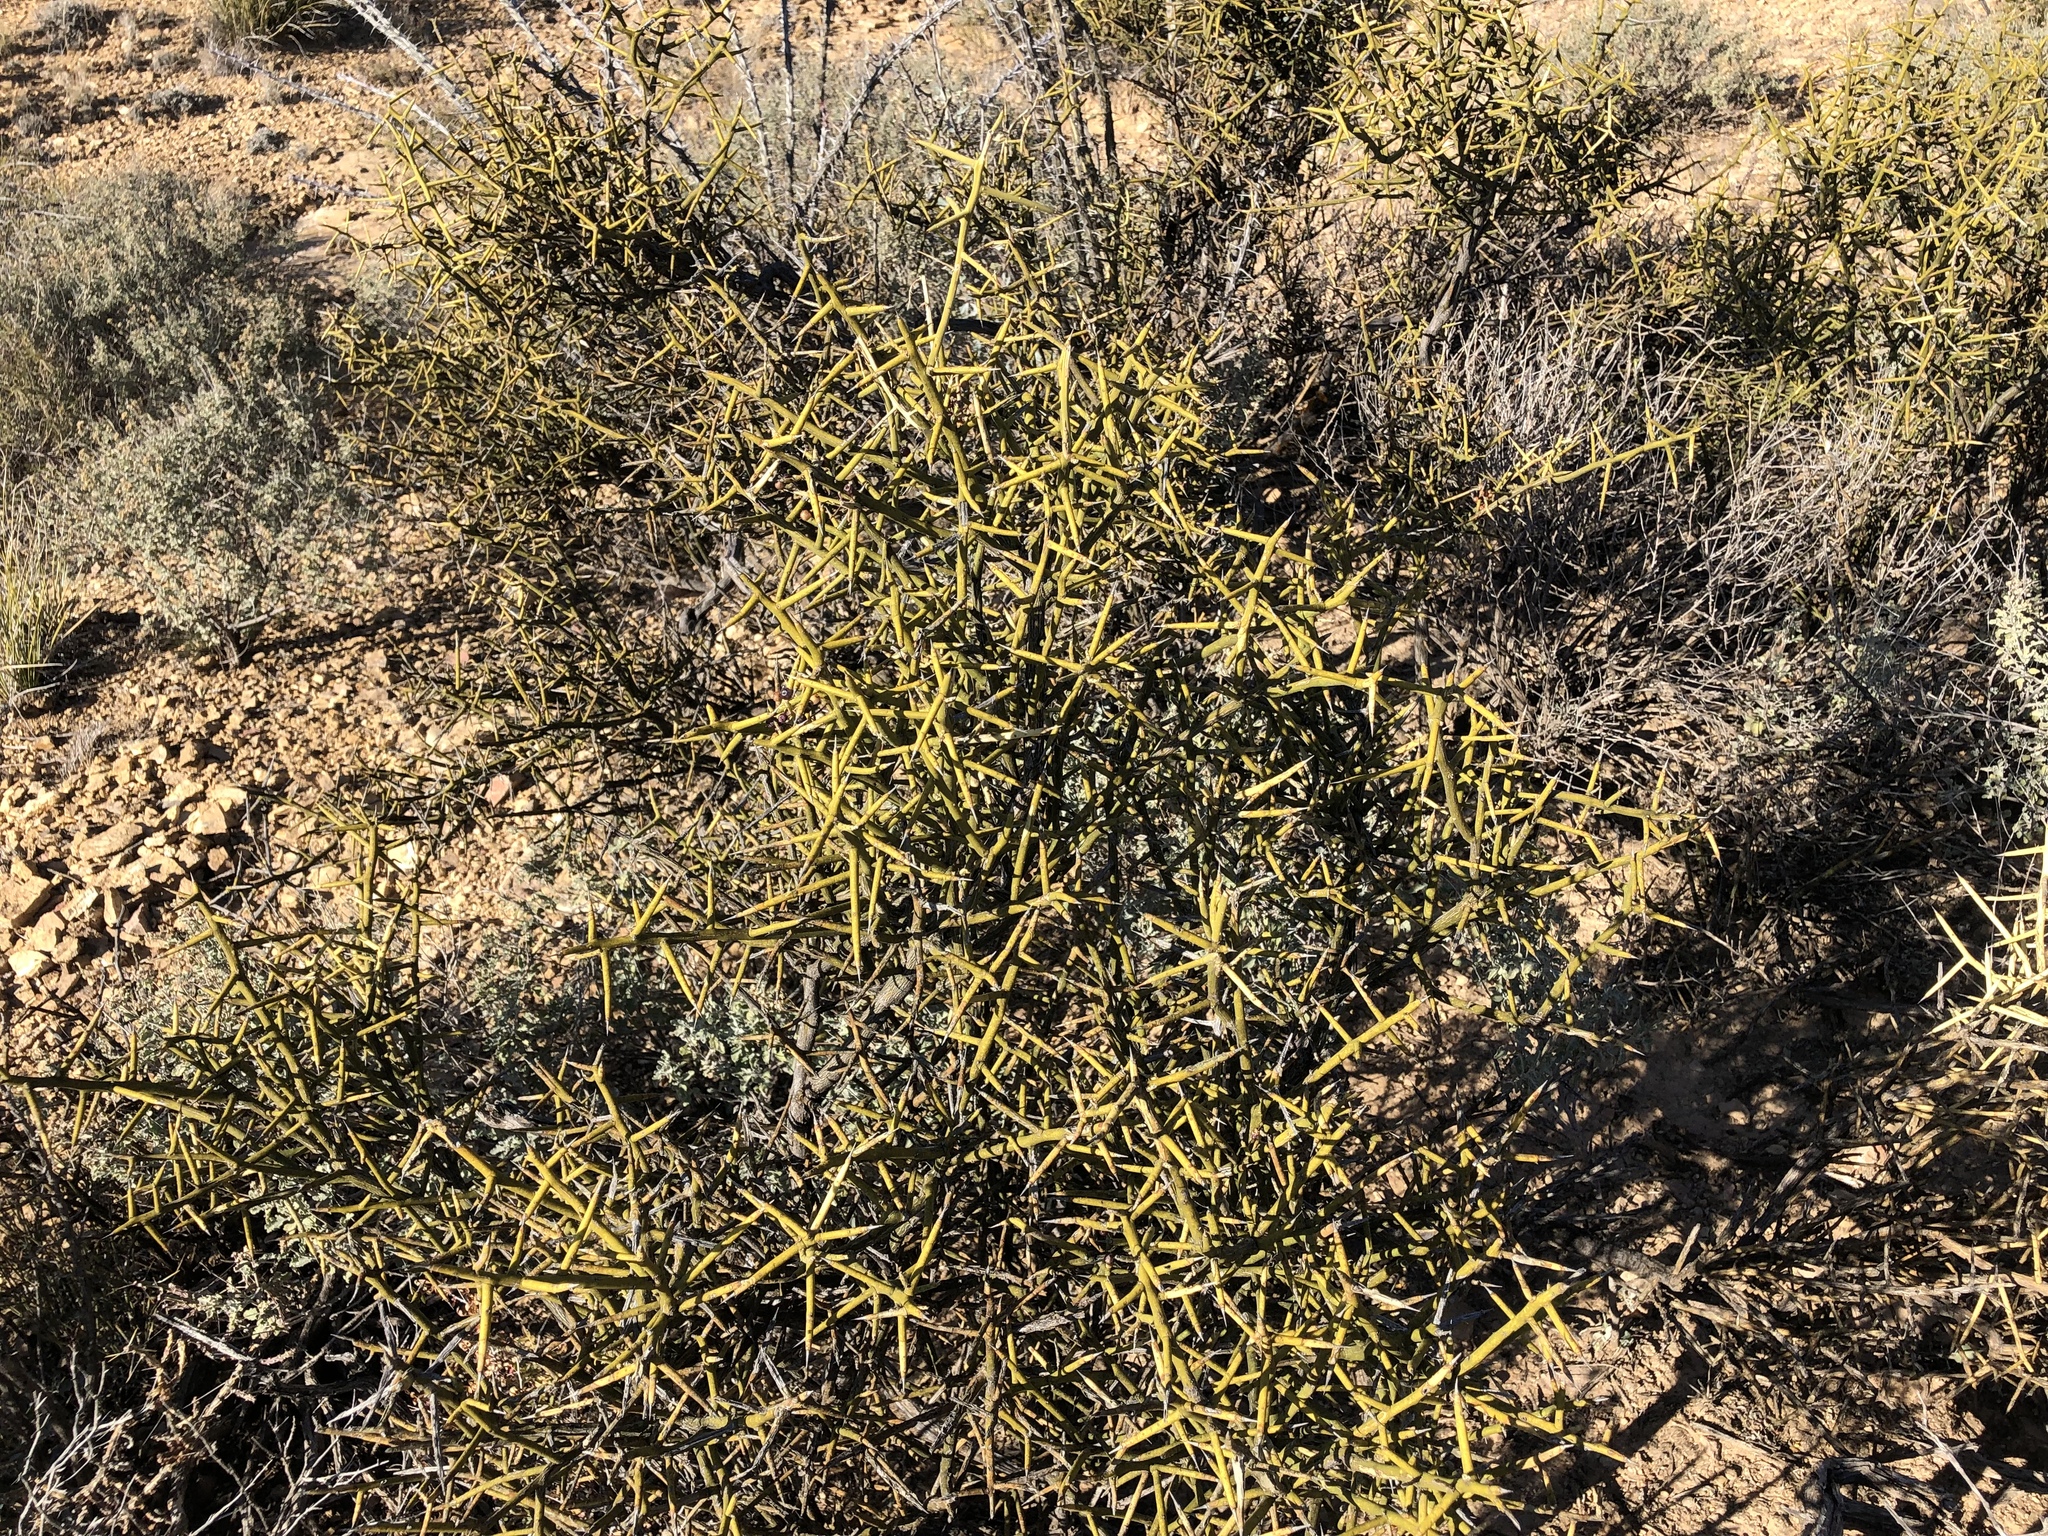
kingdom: Plantae
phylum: Tracheophyta
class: Magnoliopsida
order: Brassicales
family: Koeberliniaceae
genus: Koeberlinia
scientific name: Koeberlinia spinosa
